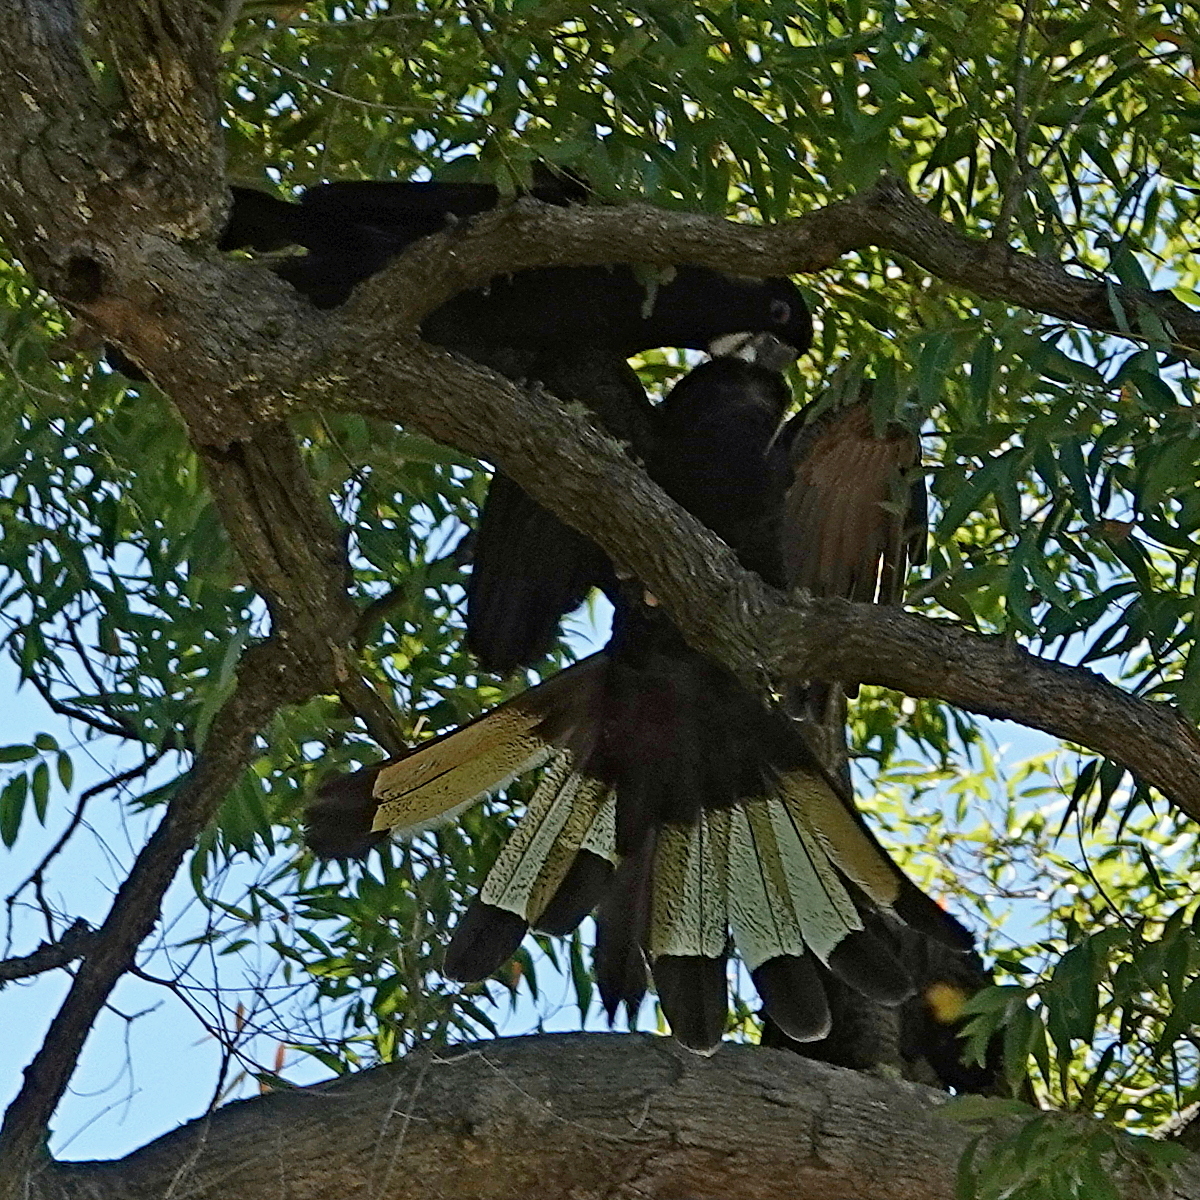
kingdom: Animalia
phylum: Chordata
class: Aves
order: Psittaciformes
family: Cacatuidae
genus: Zanda
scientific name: Zanda funerea
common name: Yellow-tailed black-cockatoo
